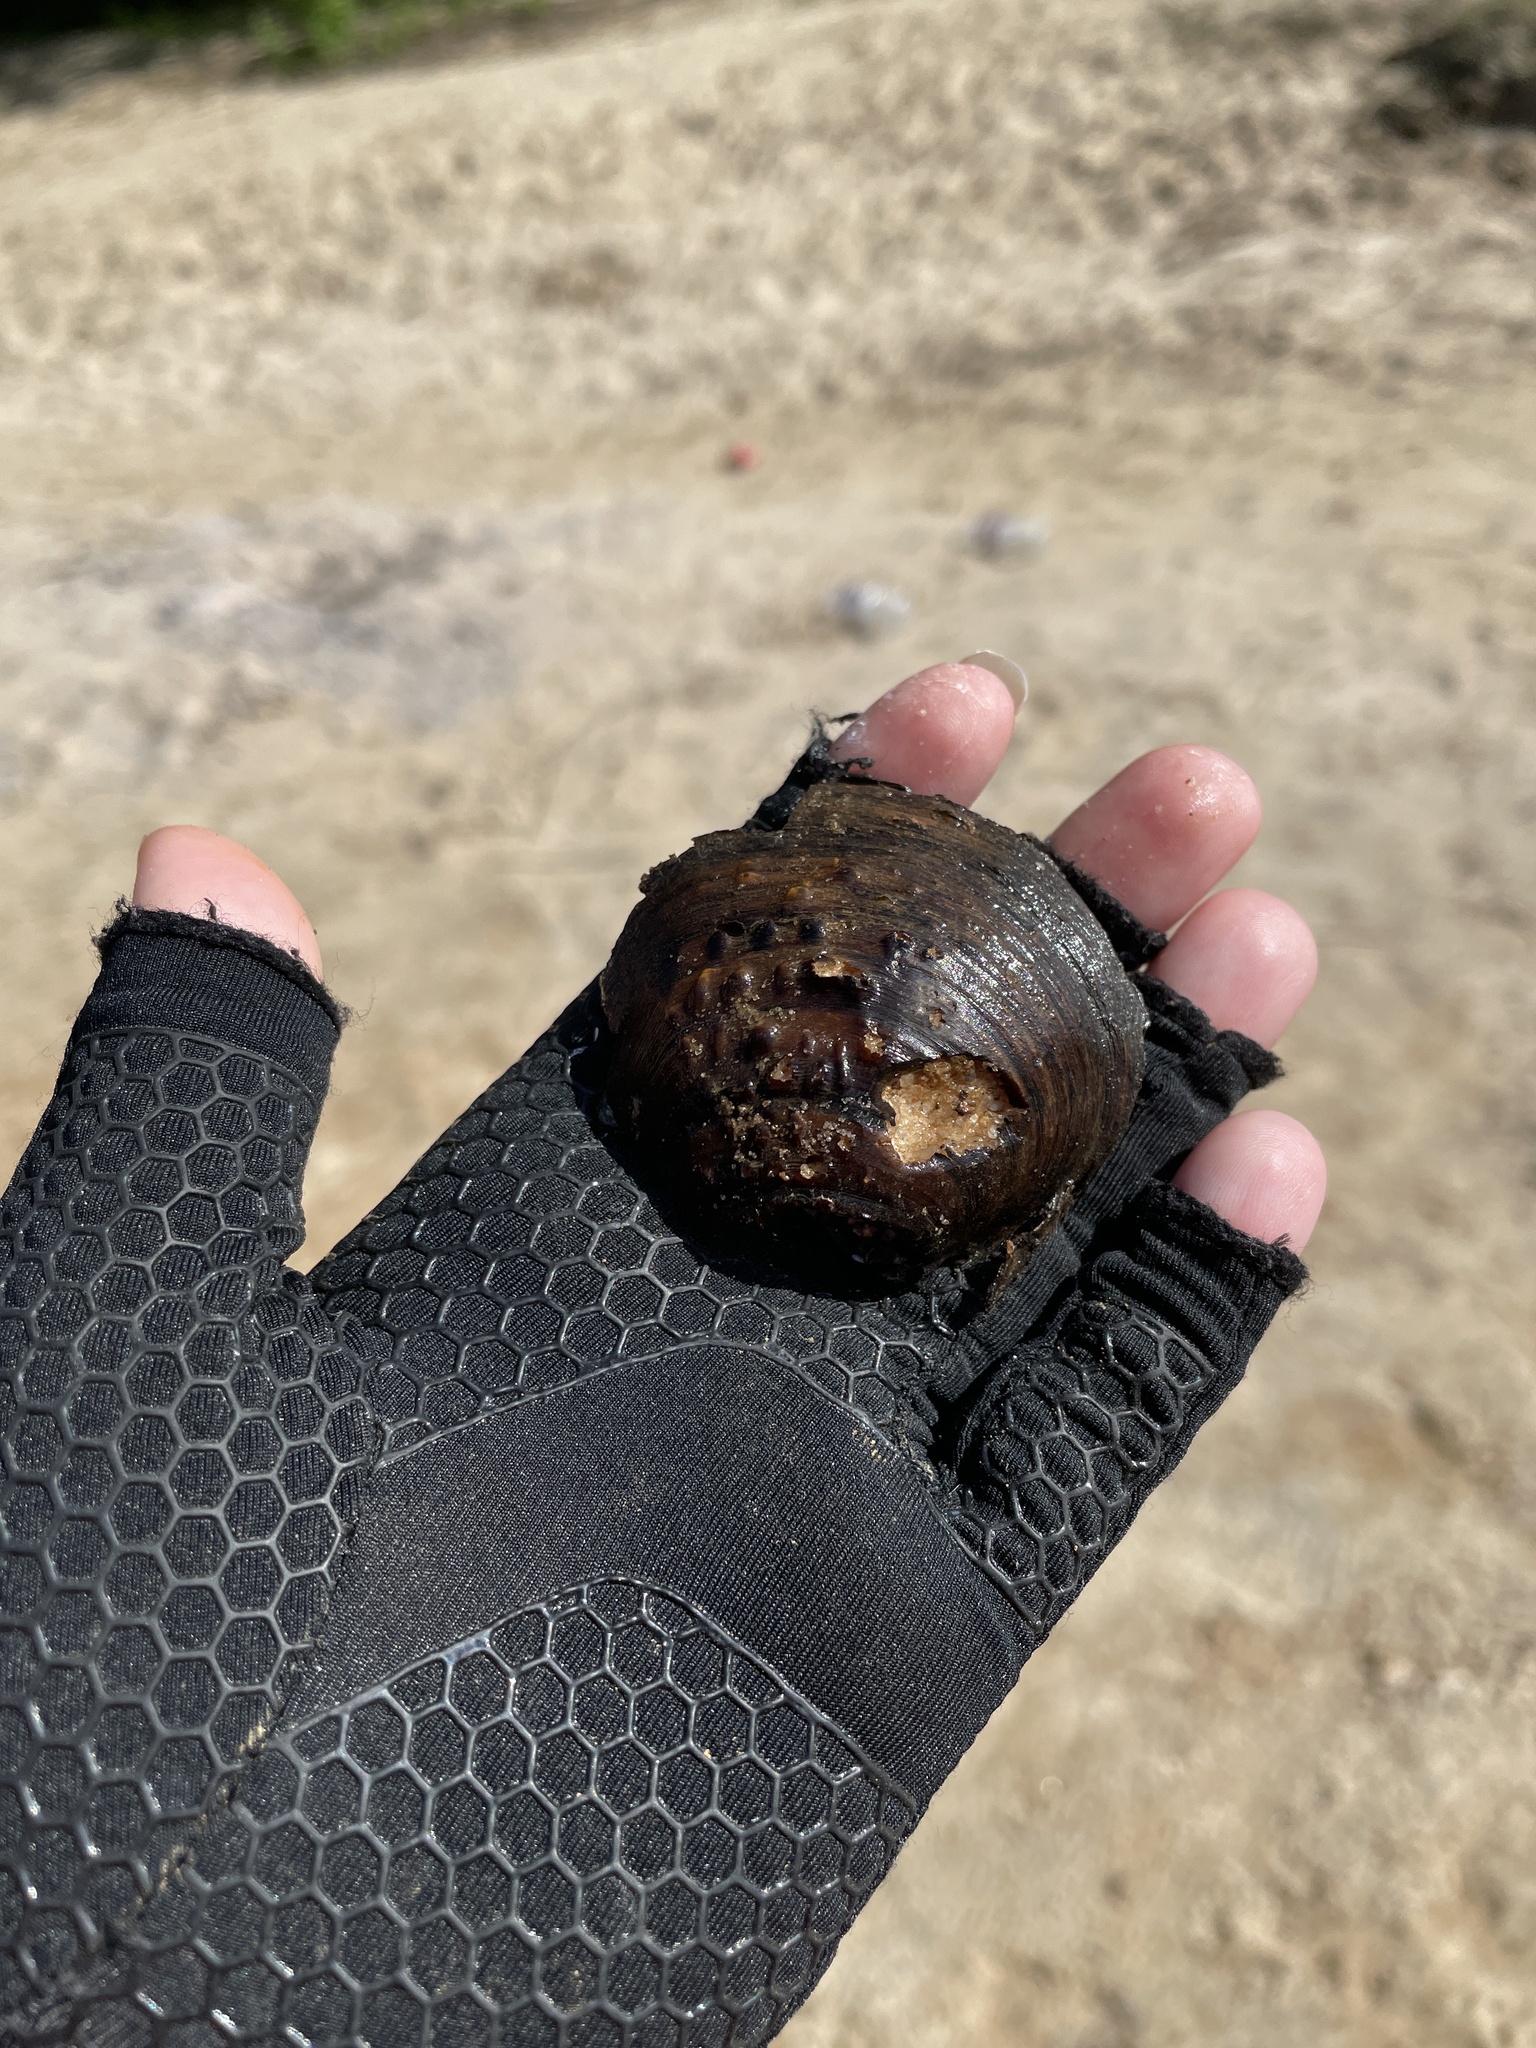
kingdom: Animalia
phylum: Mollusca
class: Bivalvia
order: Unionida
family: Unionidae
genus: Cyclonaias
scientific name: Cyclonaias pustulosa
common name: Pimpleback
